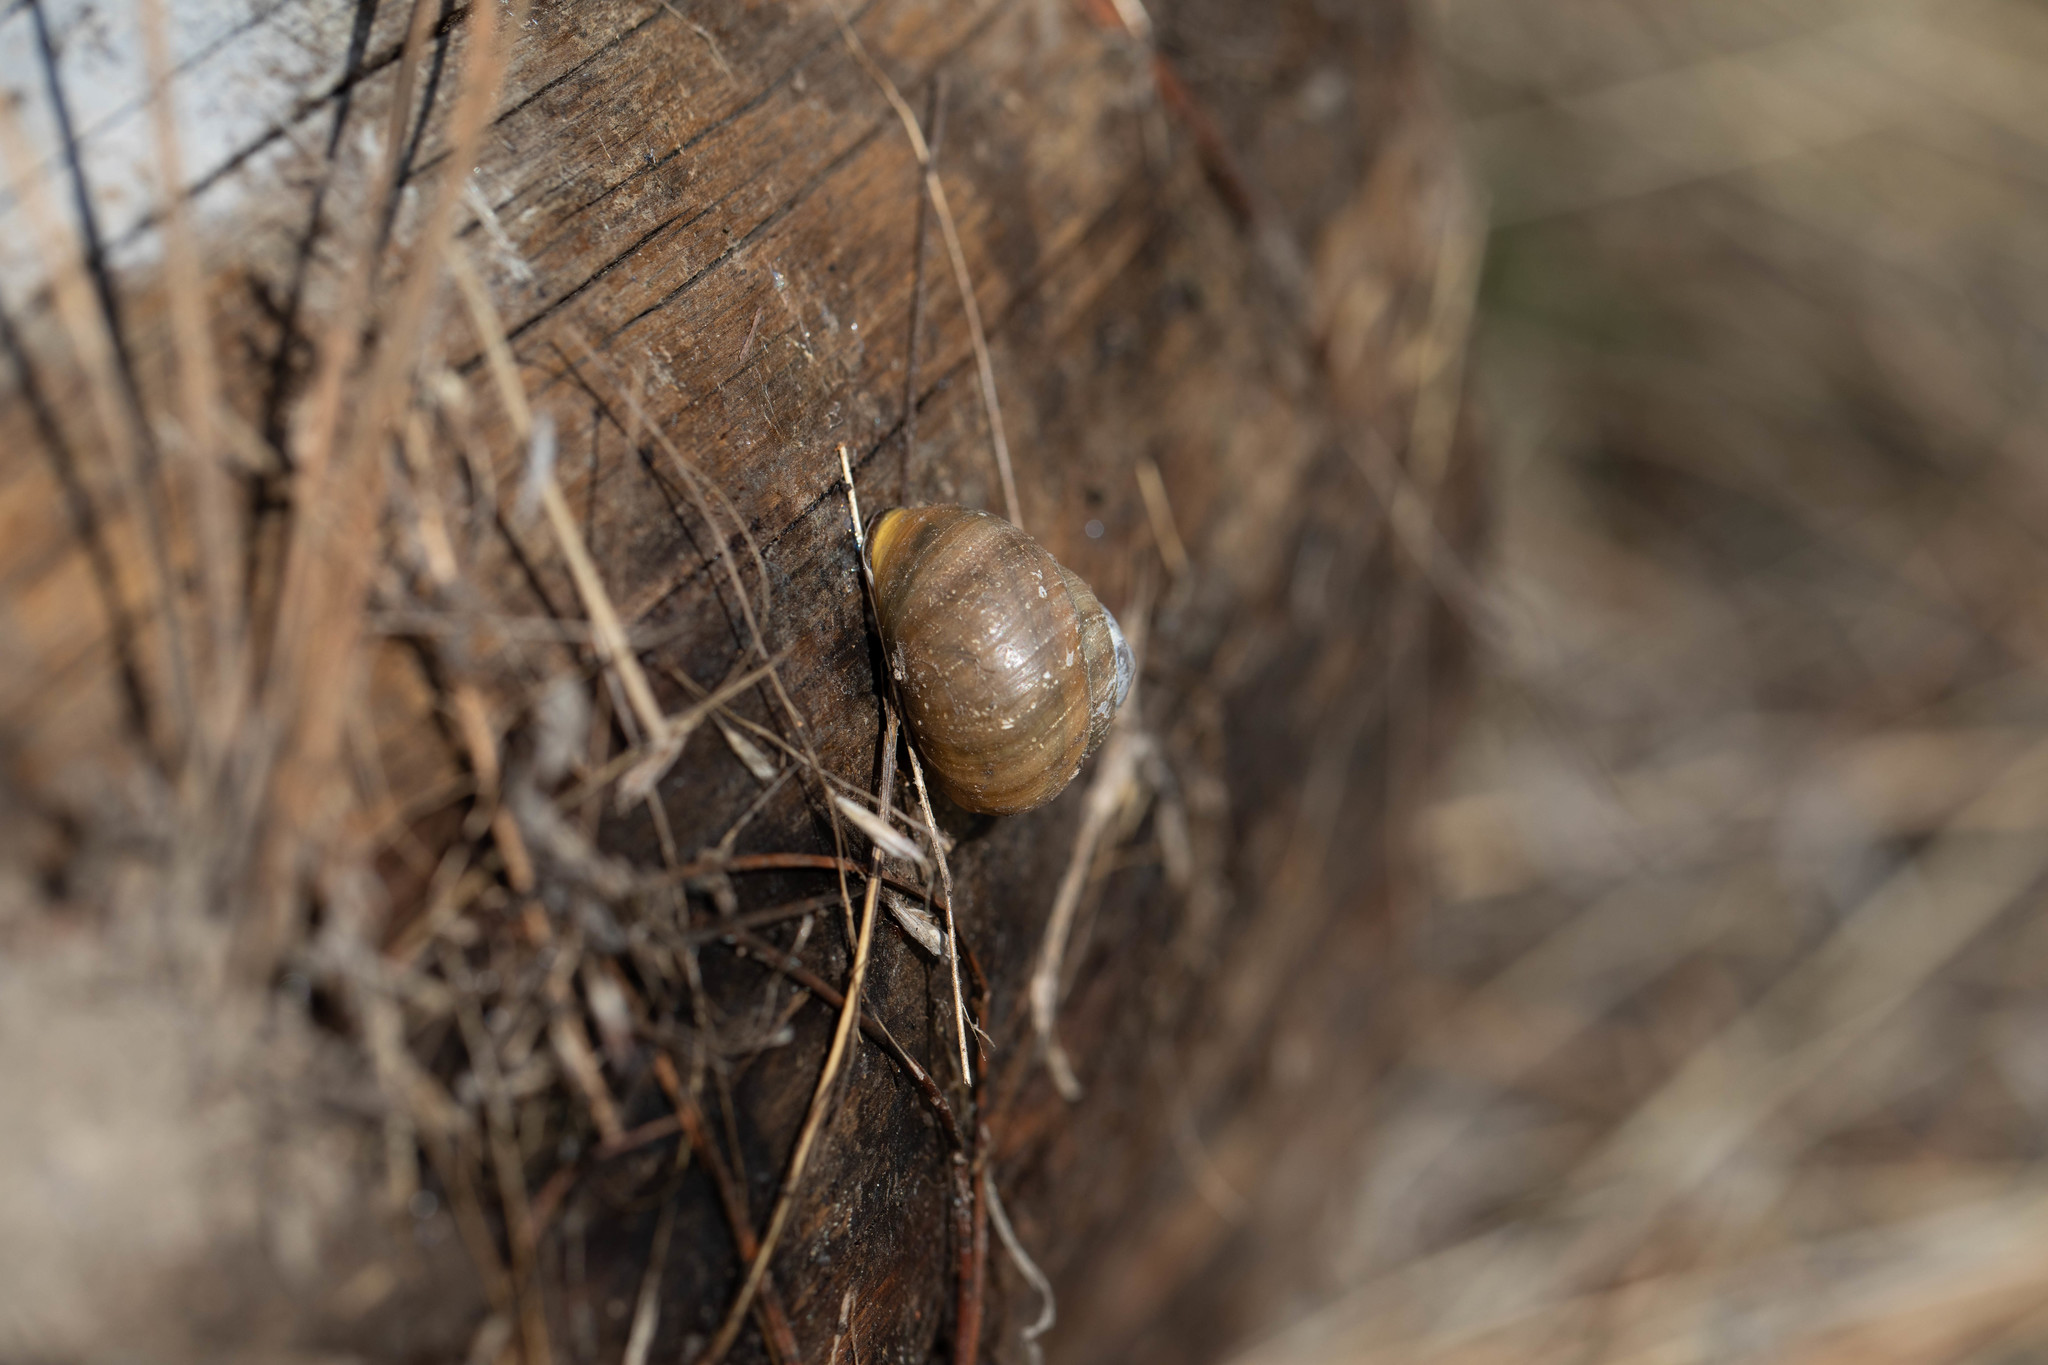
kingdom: Animalia
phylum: Mollusca
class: Gastropoda
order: Stylommatophora
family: Helicidae
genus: Cepaea
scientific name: Cepaea nemoralis
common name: Grovesnail
